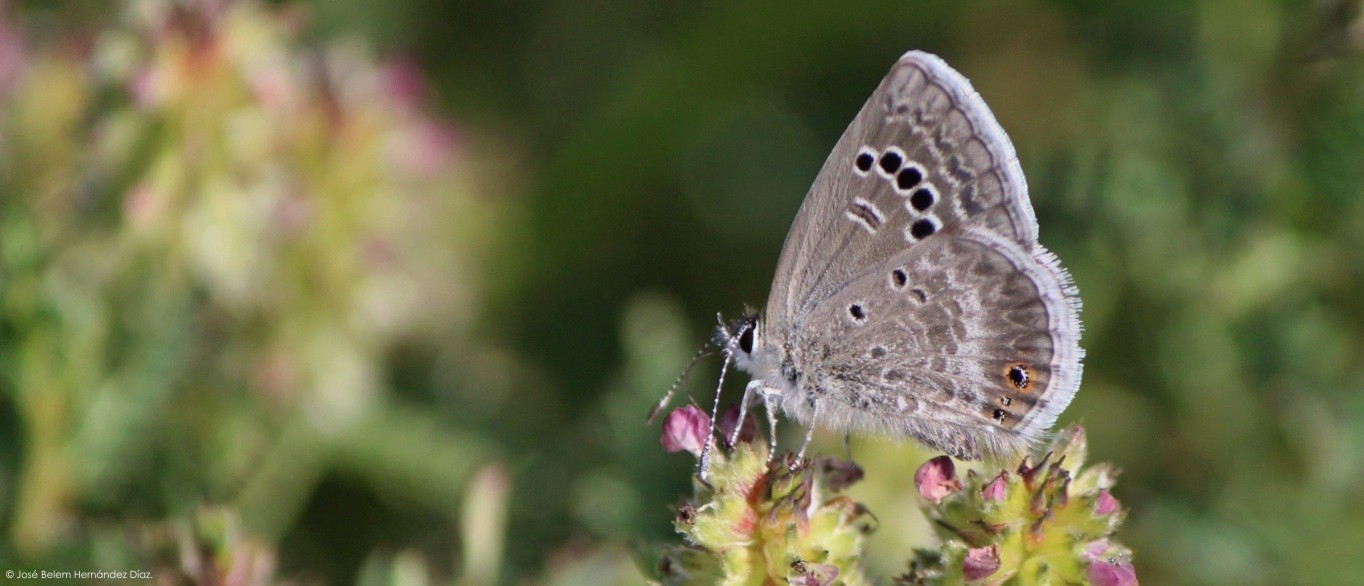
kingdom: Animalia
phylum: Arthropoda
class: Insecta
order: Lepidoptera
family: Lycaenidae
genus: Echinargus
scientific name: Echinargus isola
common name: Reakirt's blue
